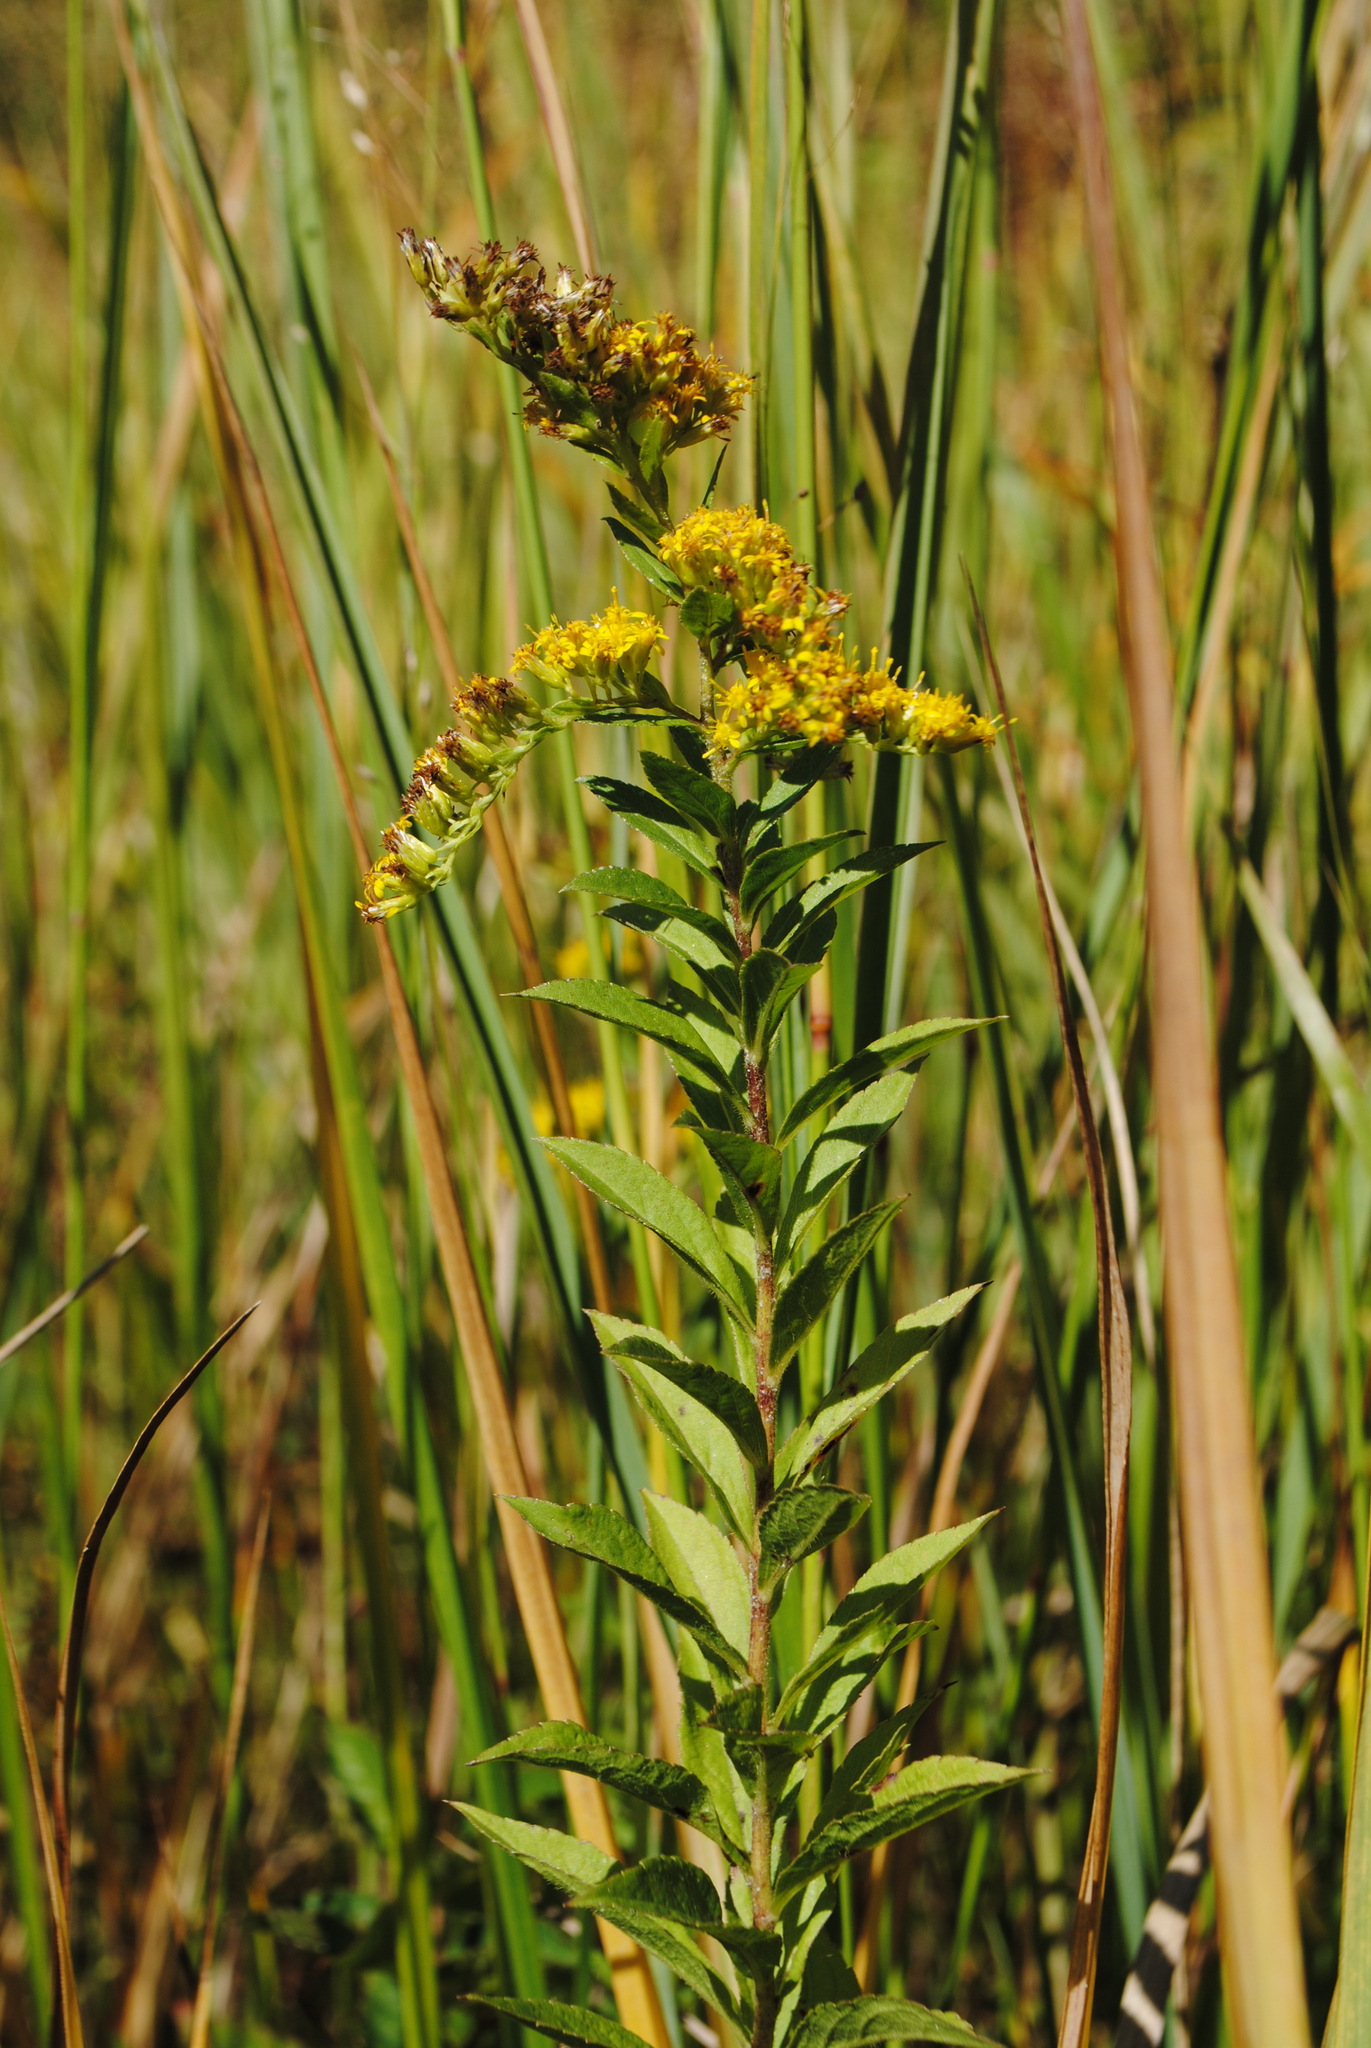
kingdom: Plantae
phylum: Tracheophyta
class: Magnoliopsida
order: Asterales
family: Asteraceae
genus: Solidago
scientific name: Solidago rugosa
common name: Rough-stemmed goldenrod
